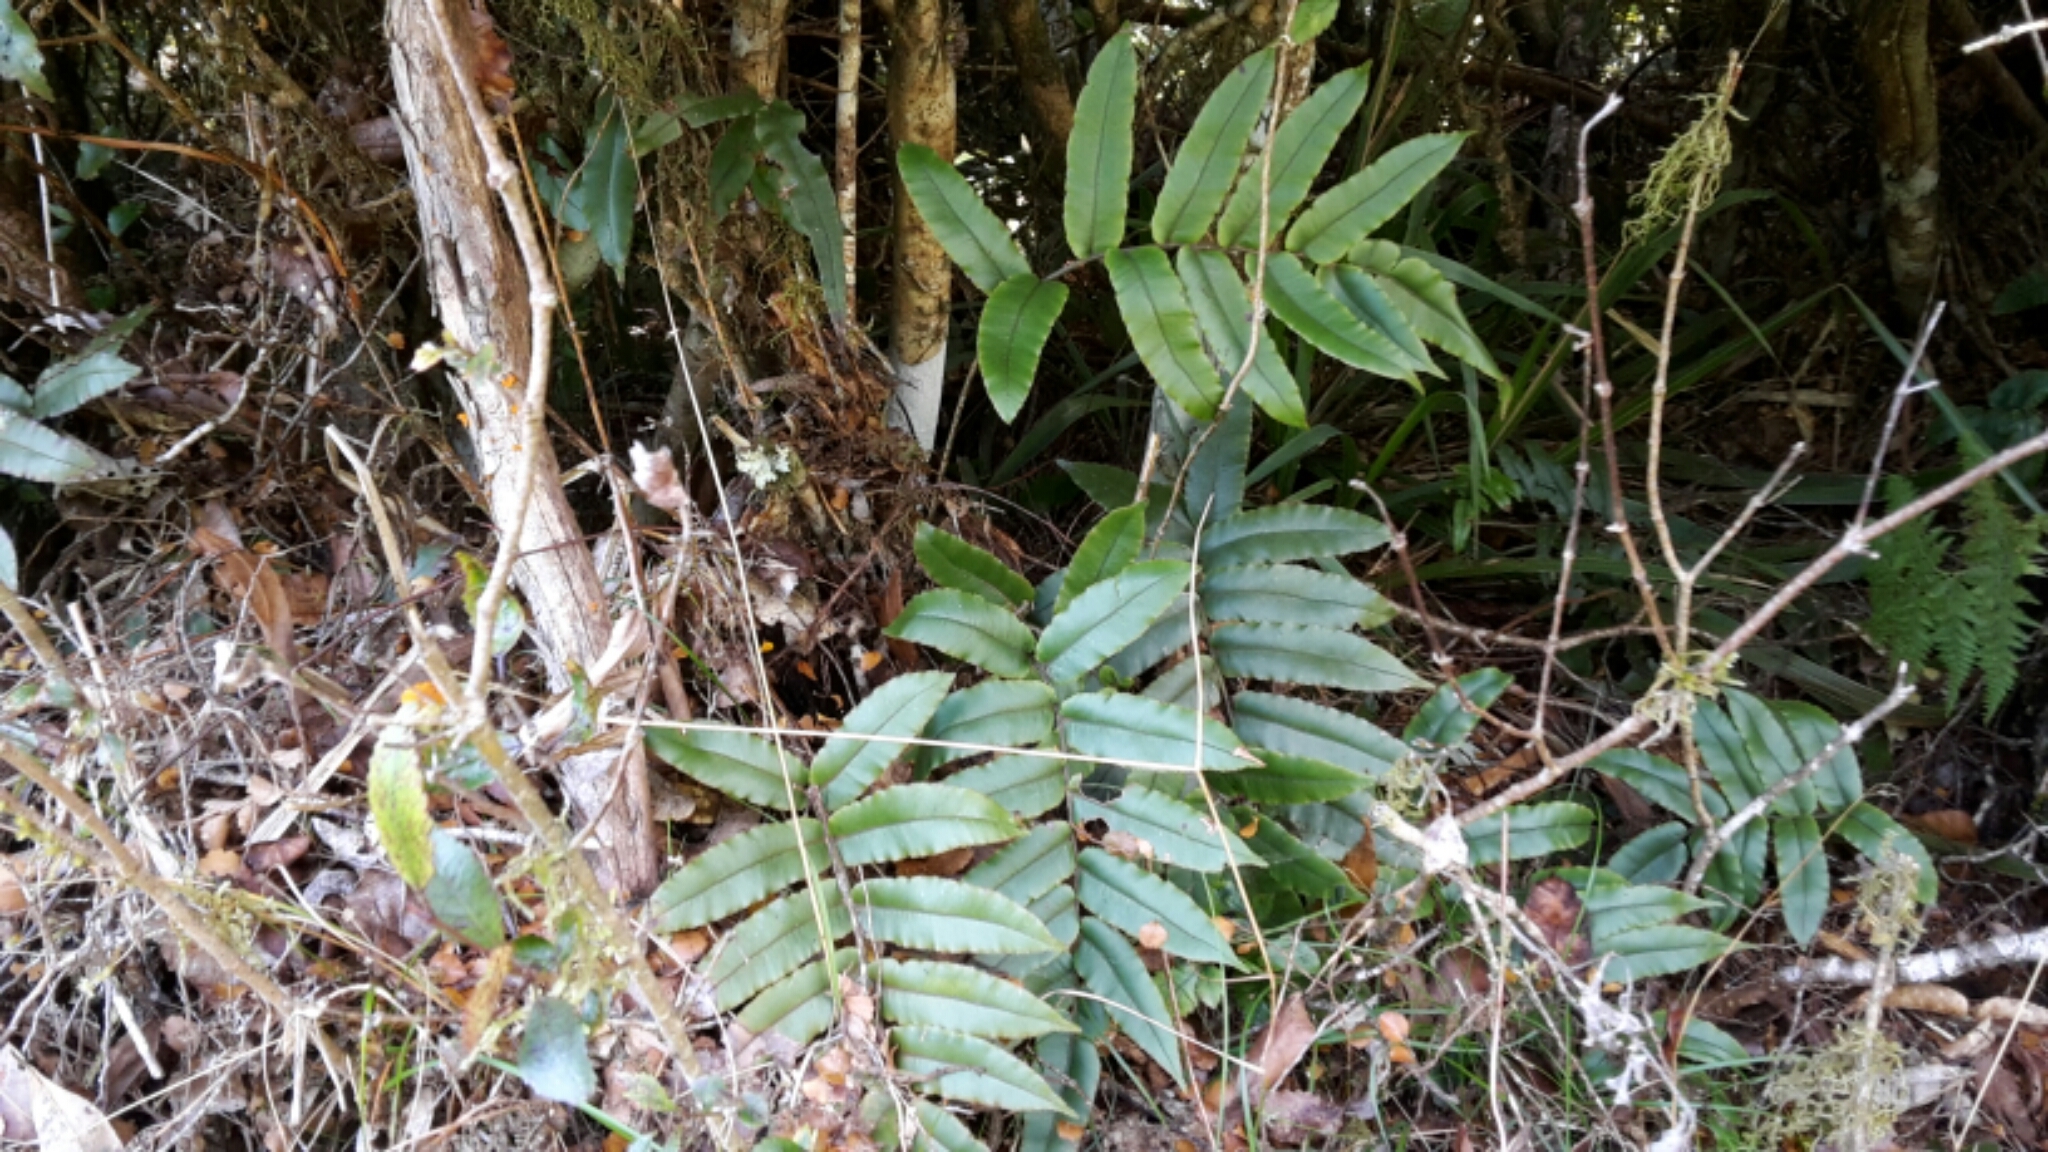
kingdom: Plantae
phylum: Tracheophyta
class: Polypodiopsida
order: Polypodiales
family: Blechnaceae
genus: Parablechnum
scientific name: Parablechnum procerum
